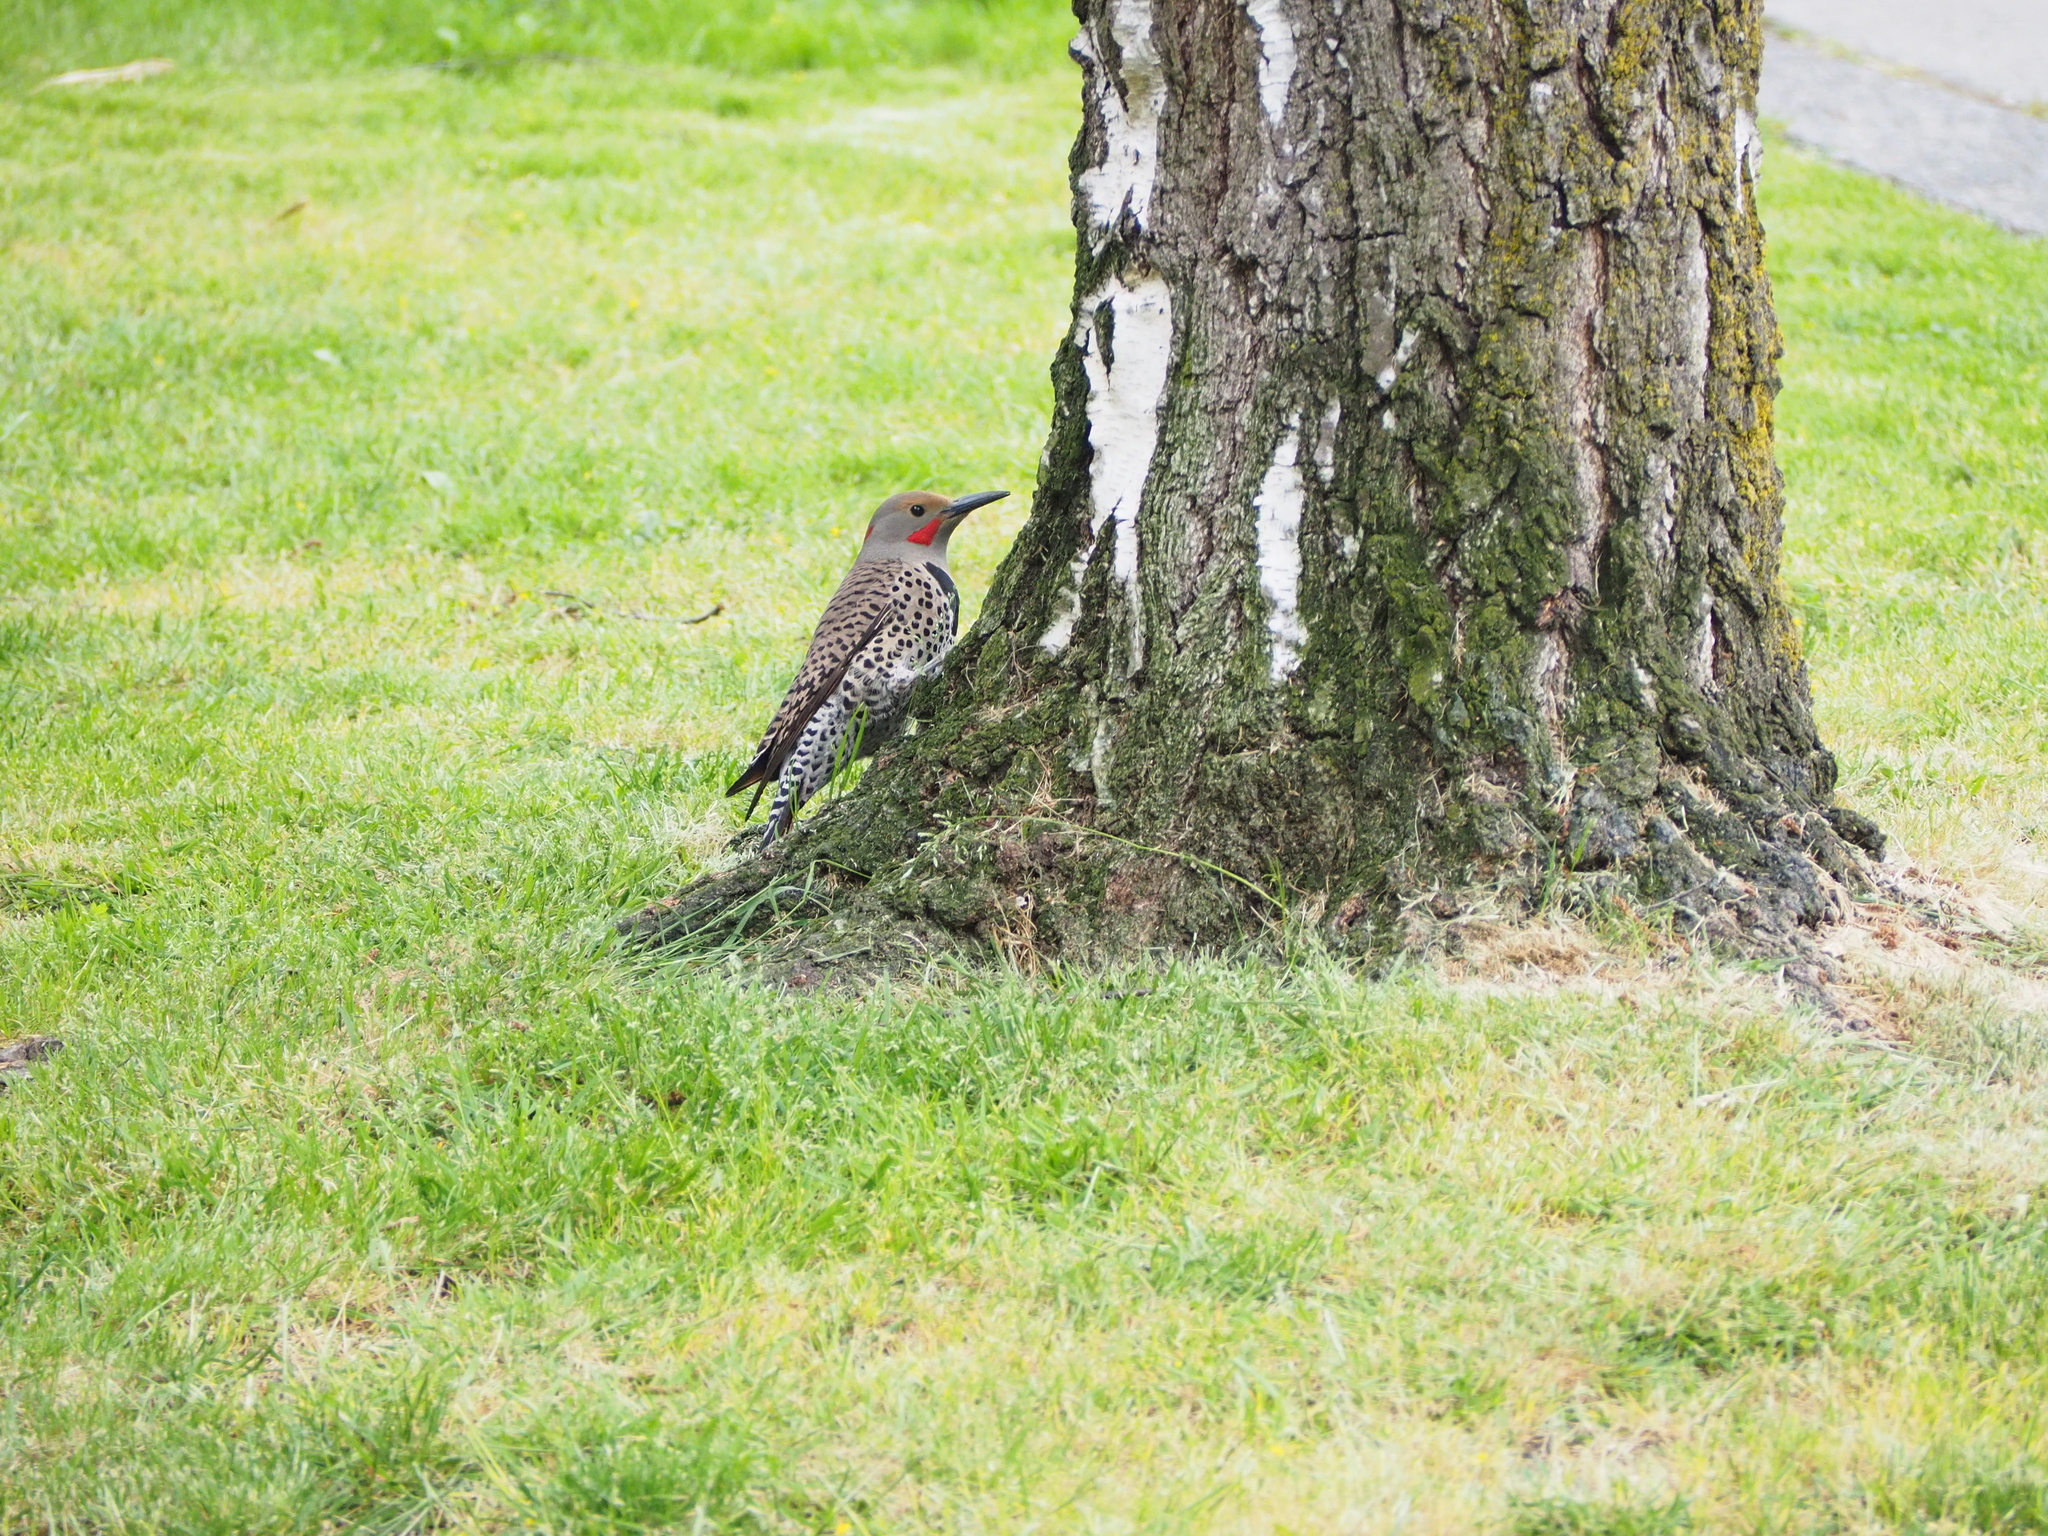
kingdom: Animalia
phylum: Chordata
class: Aves
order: Piciformes
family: Picidae
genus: Colaptes
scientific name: Colaptes auratus
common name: Northern flicker
